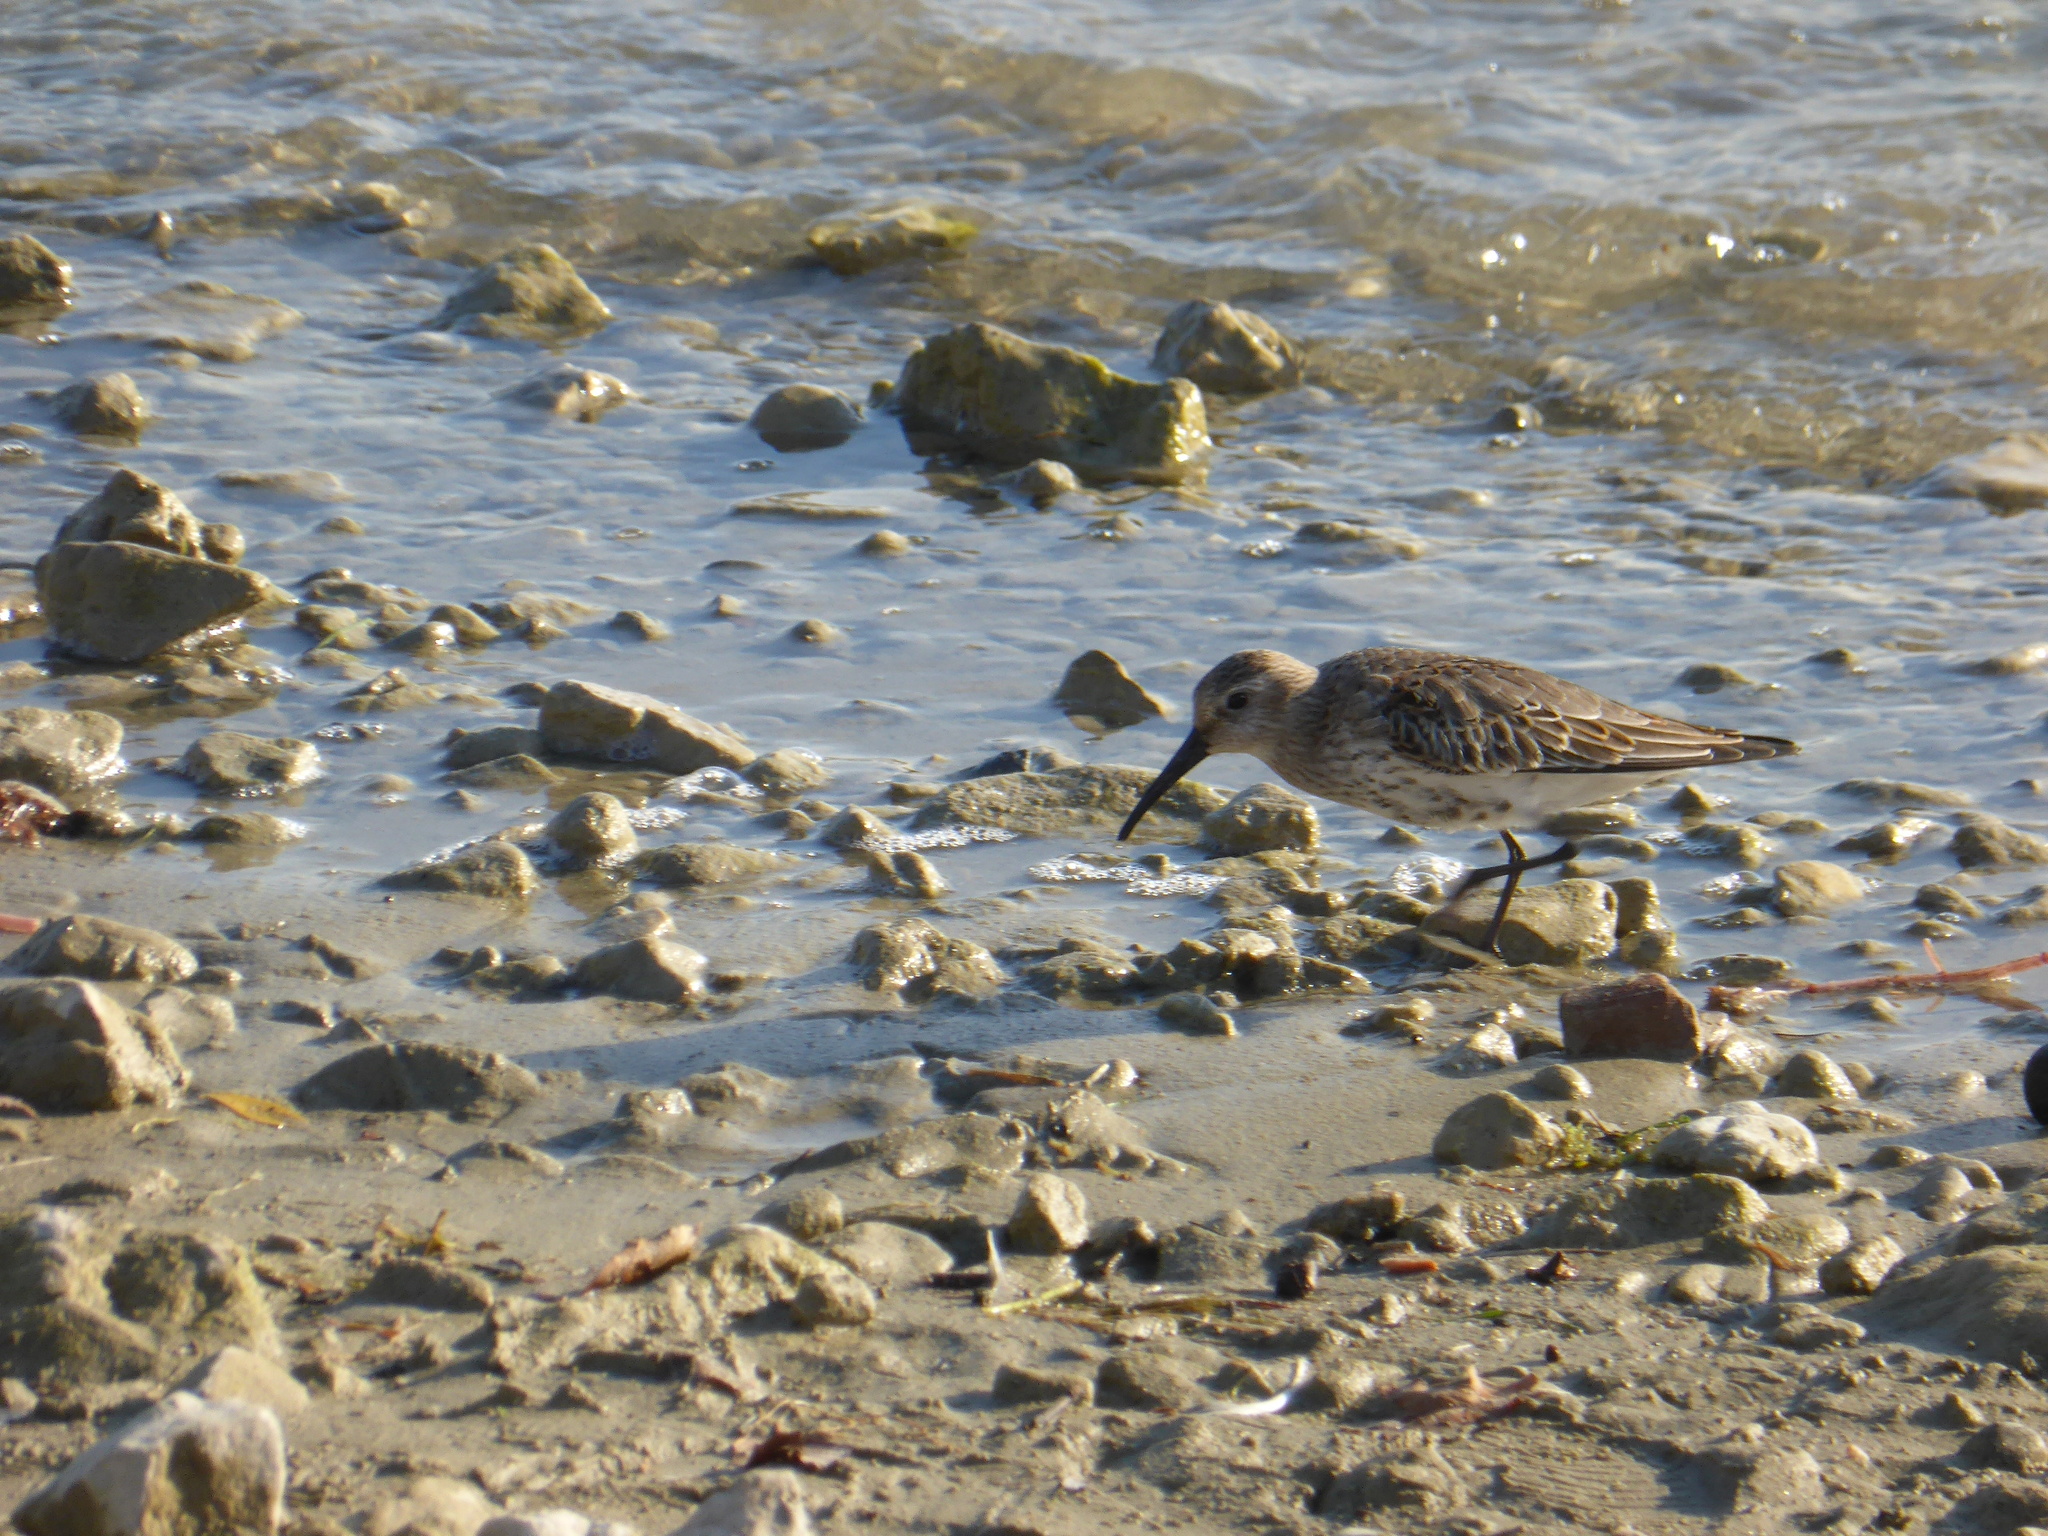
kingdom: Animalia
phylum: Chordata
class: Aves
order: Charadriiformes
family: Scolopacidae
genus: Calidris
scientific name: Calidris alpina
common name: Dunlin
